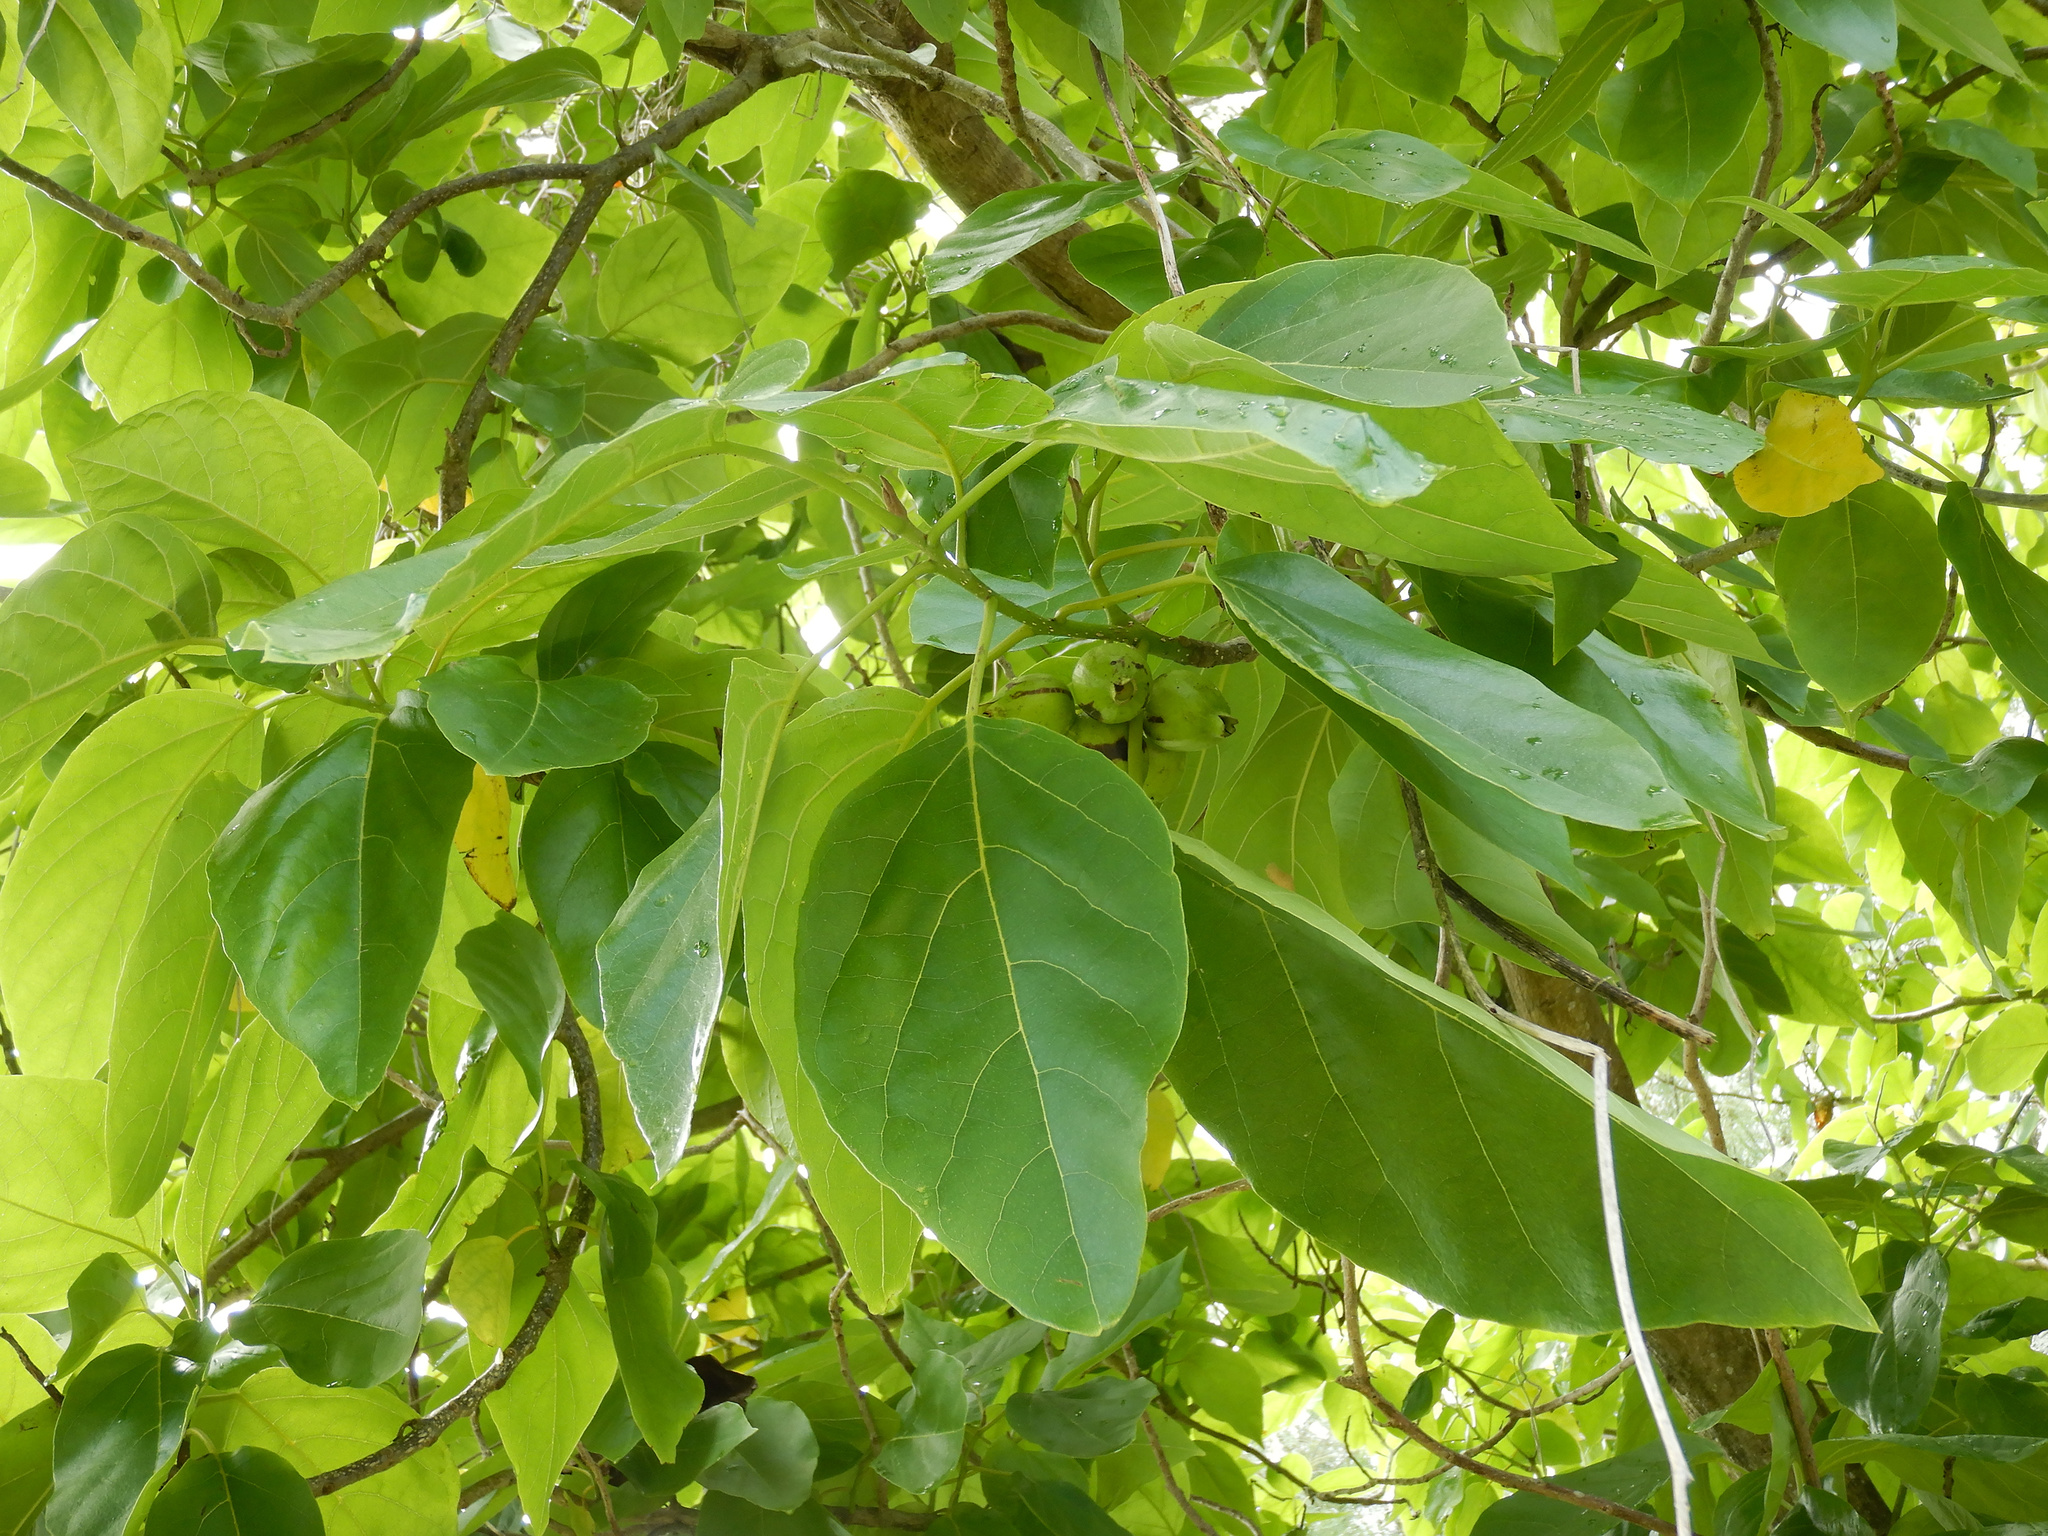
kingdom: Plantae
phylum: Tracheophyta
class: Magnoliopsida
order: Boraginales
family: Cordiaceae
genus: Cordia
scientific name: Cordia subcordata
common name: Mareer
